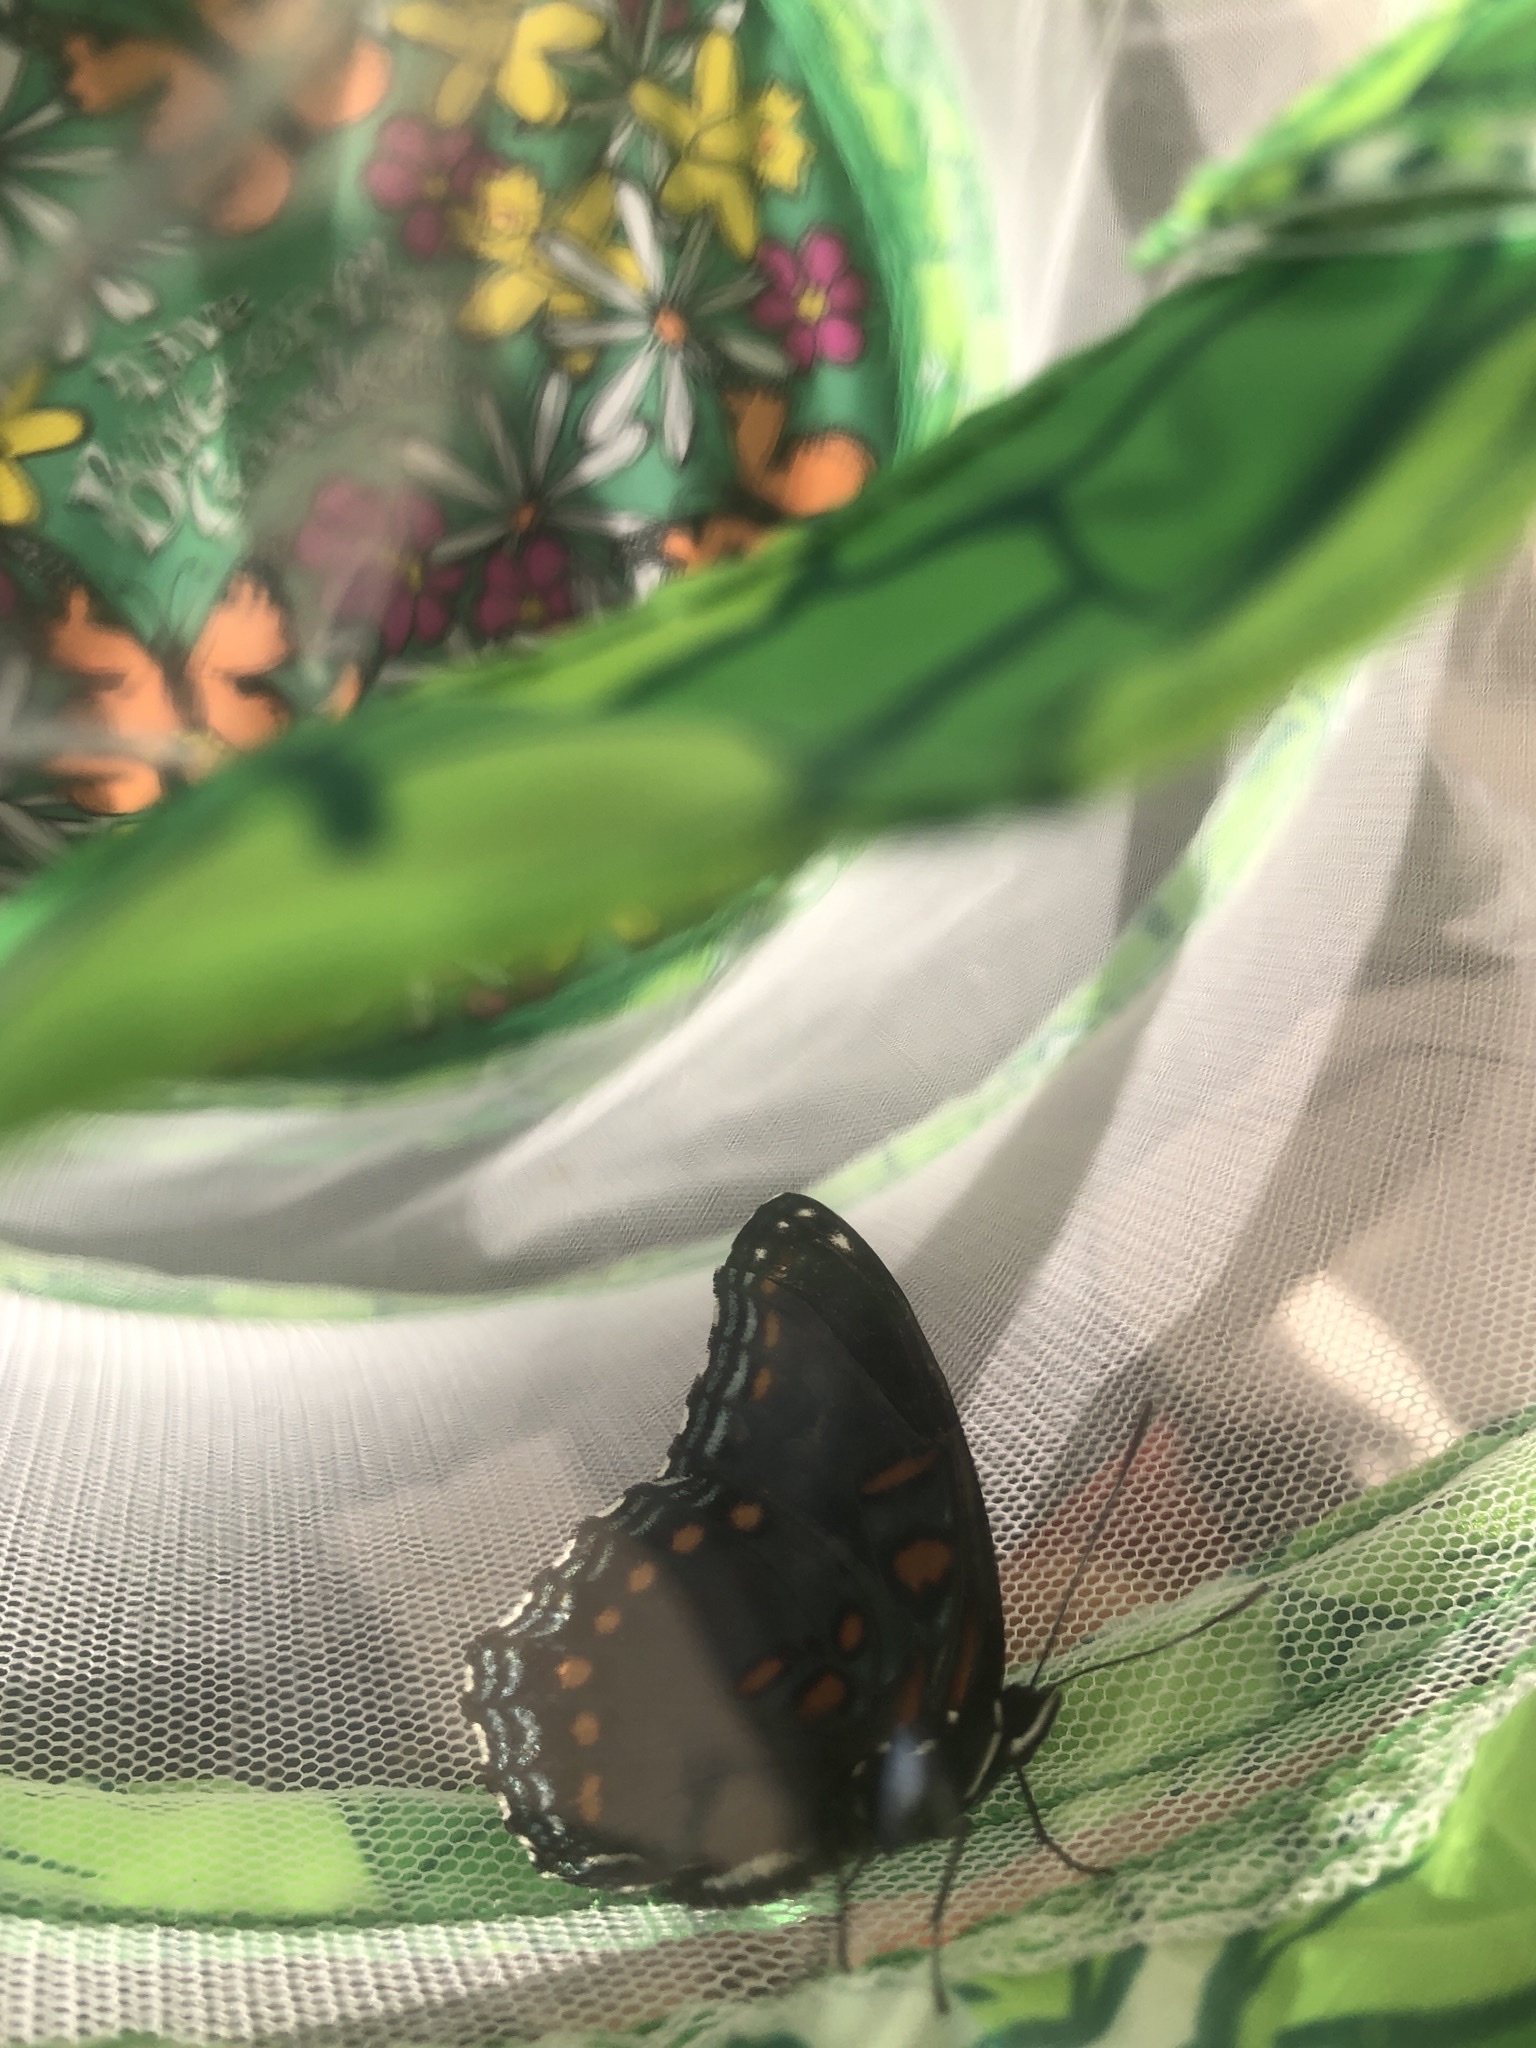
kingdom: Animalia
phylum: Arthropoda
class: Insecta
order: Lepidoptera
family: Nymphalidae
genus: Limenitis
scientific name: Limenitis astyanax
